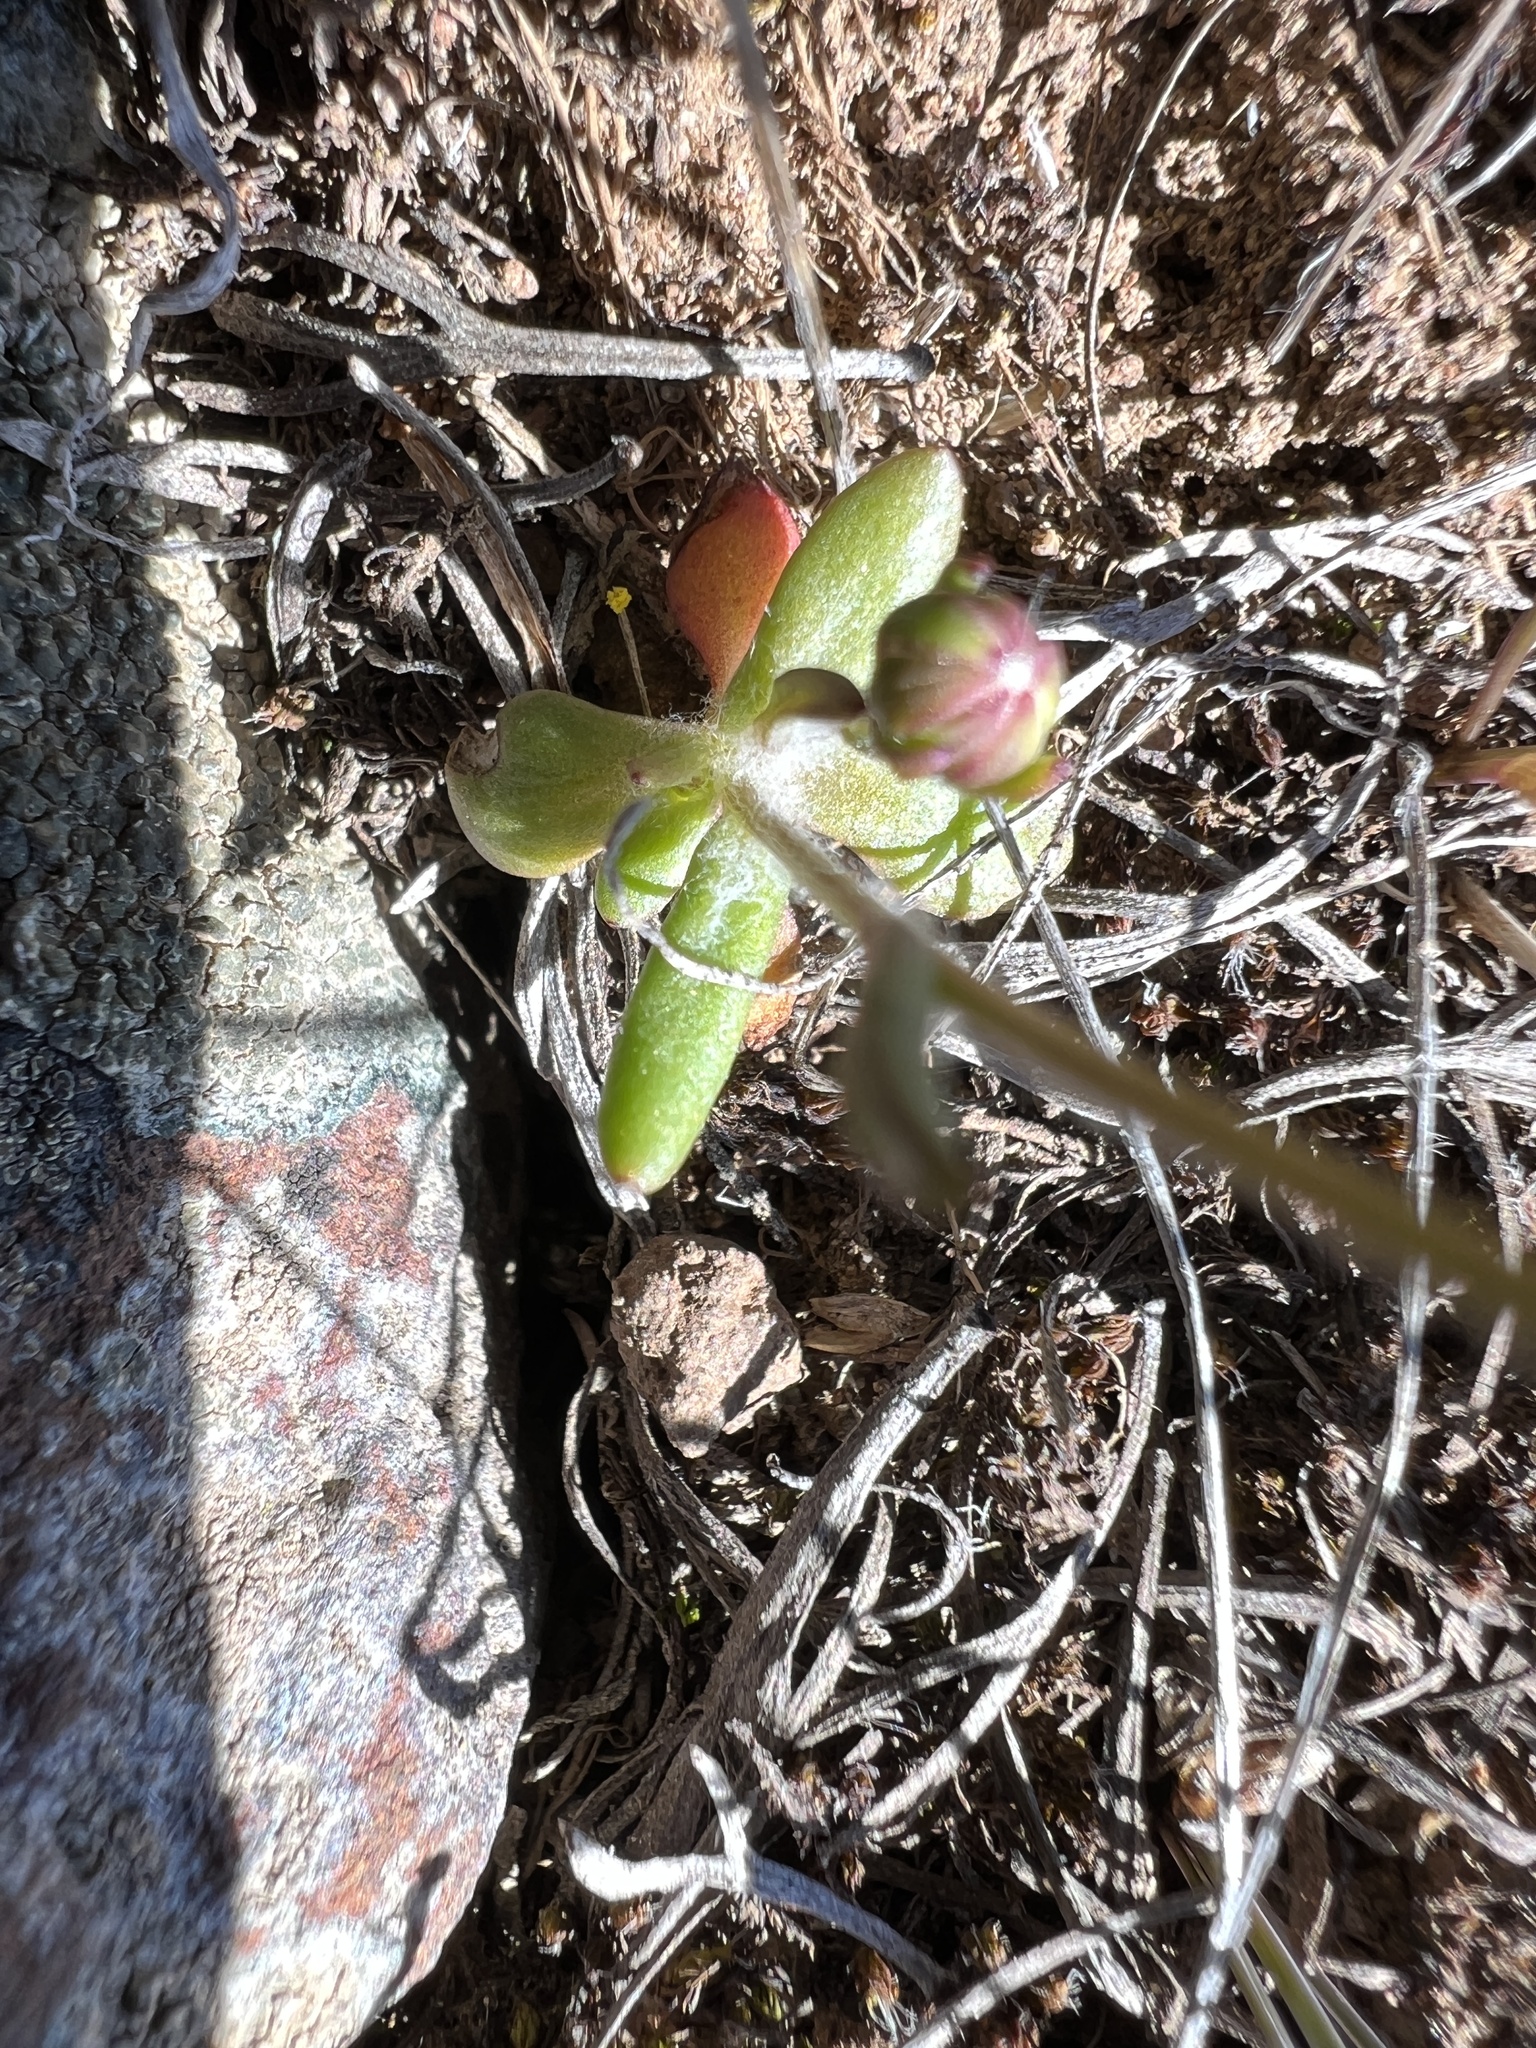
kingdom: Plantae
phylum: Tracheophyta
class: Magnoliopsida
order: Asterales
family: Asteraceae
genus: Crocidium
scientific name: Crocidium multicaule
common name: Common spring gold
